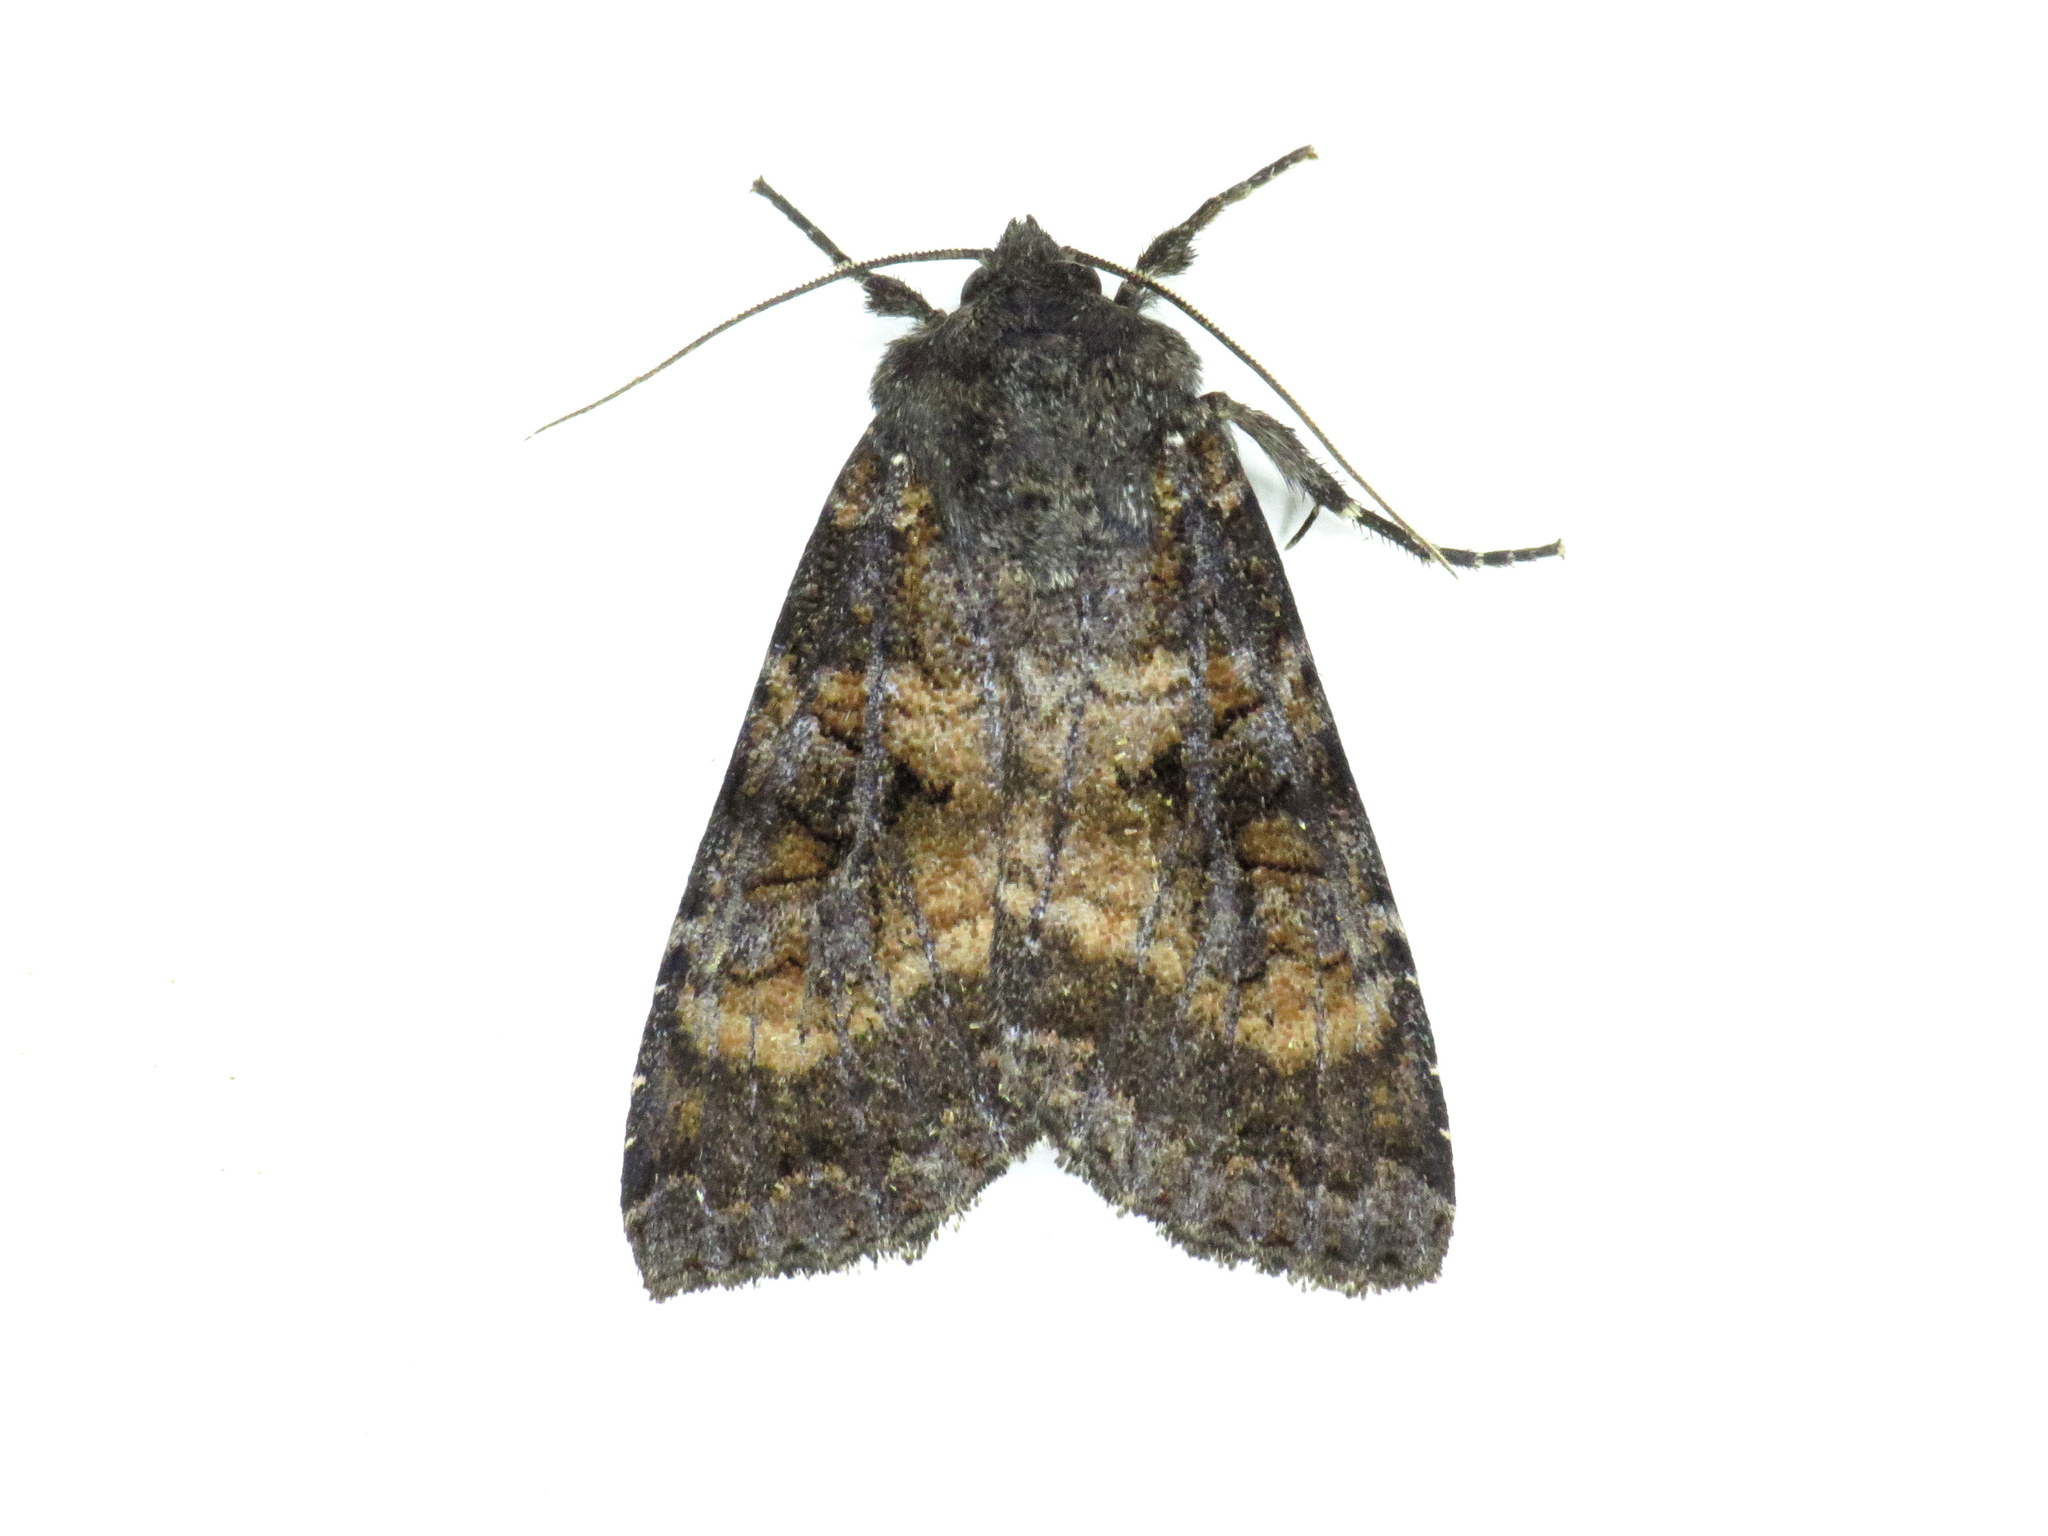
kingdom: Animalia
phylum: Arthropoda
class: Insecta
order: Lepidoptera
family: Noctuidae
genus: Eurois
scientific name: Eurois astricta
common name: Great brown dart
